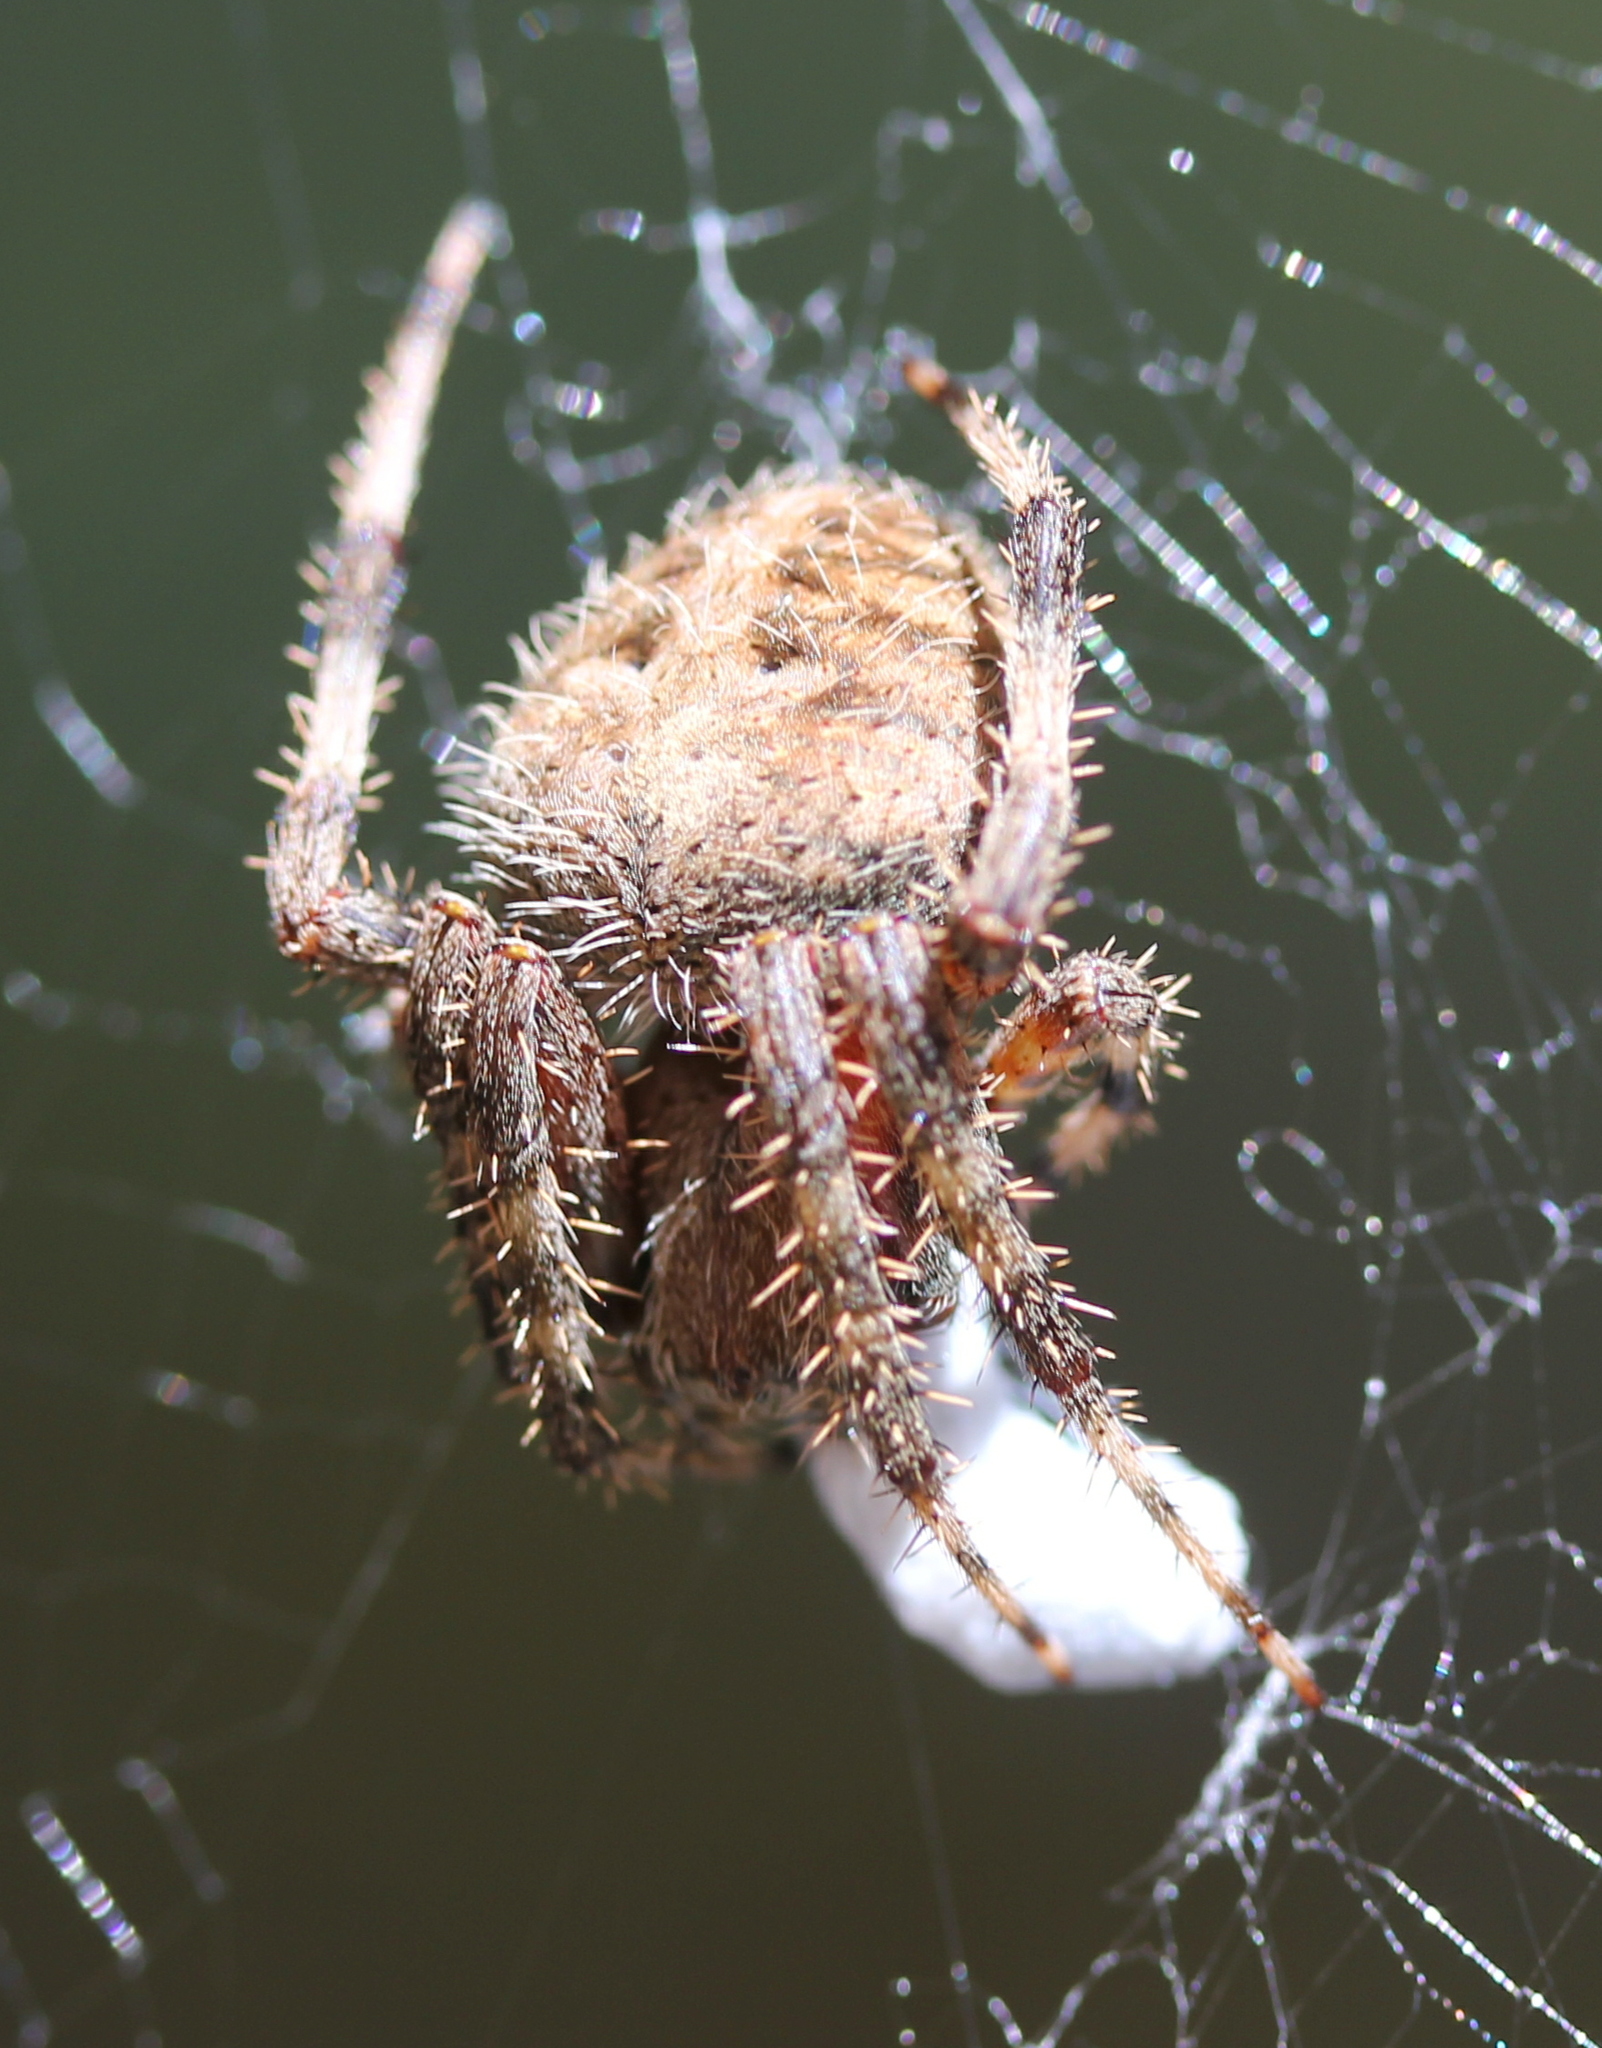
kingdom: Animalia
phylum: Arthropoda
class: Arachnida
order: Araneae
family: Araneidae
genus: Neoscona
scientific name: Neoscona crucifera
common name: Spotted orbweaver
